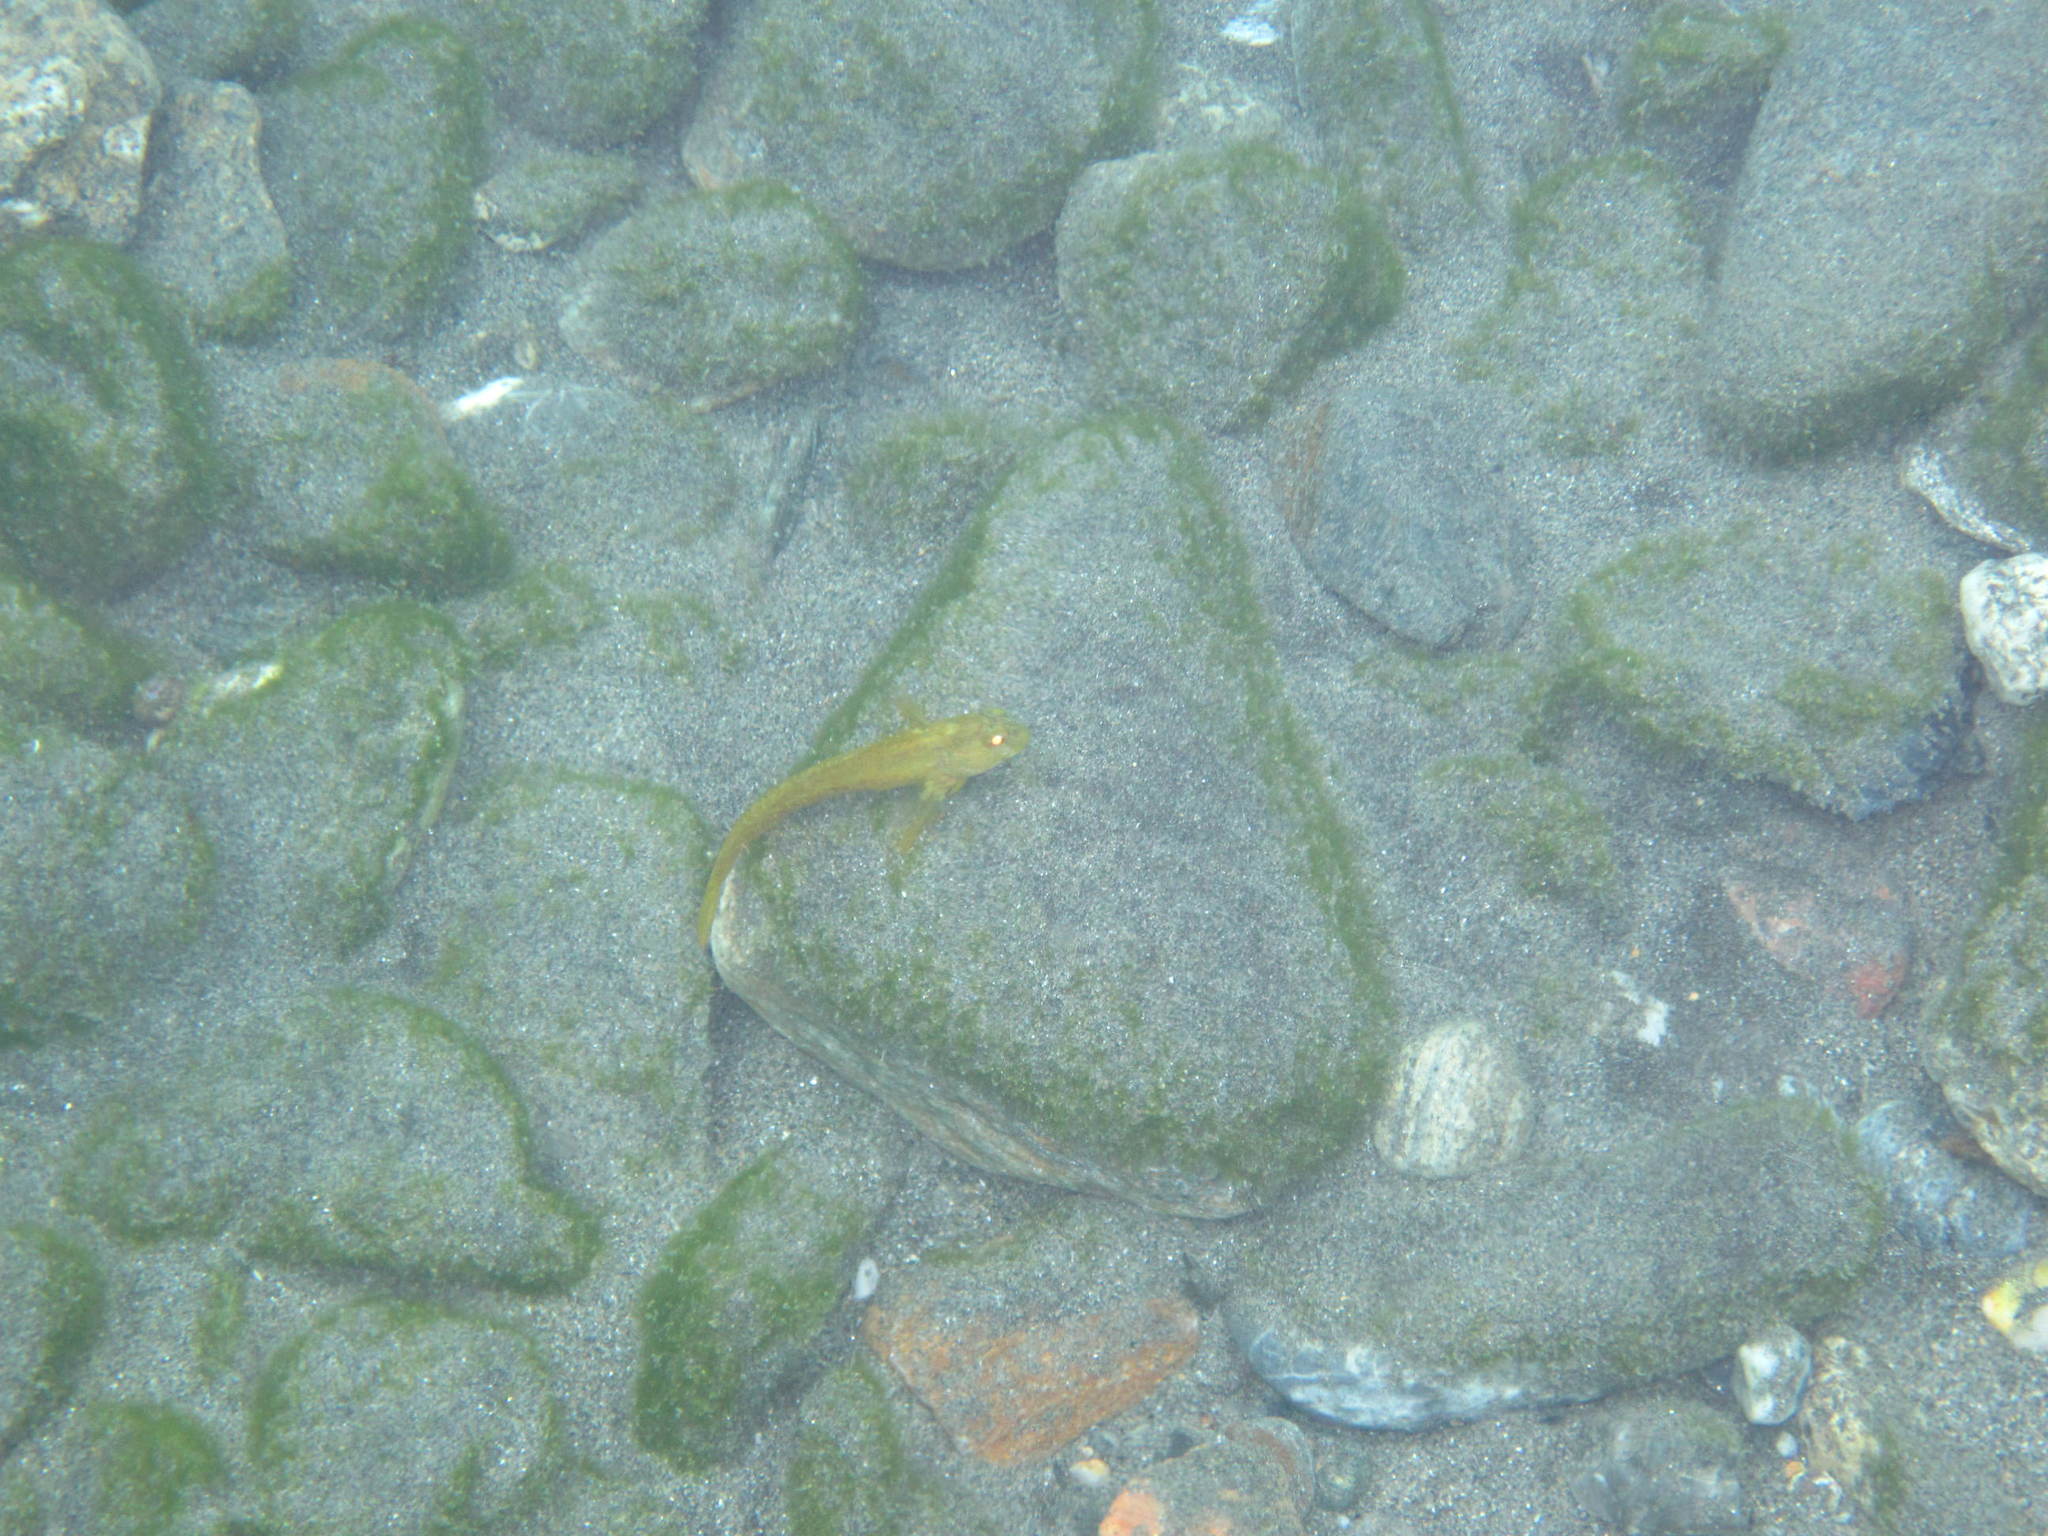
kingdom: Animalia
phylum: Chordata
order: Perciformes
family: Blenniidae
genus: Parablennius
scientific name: Parablennius
